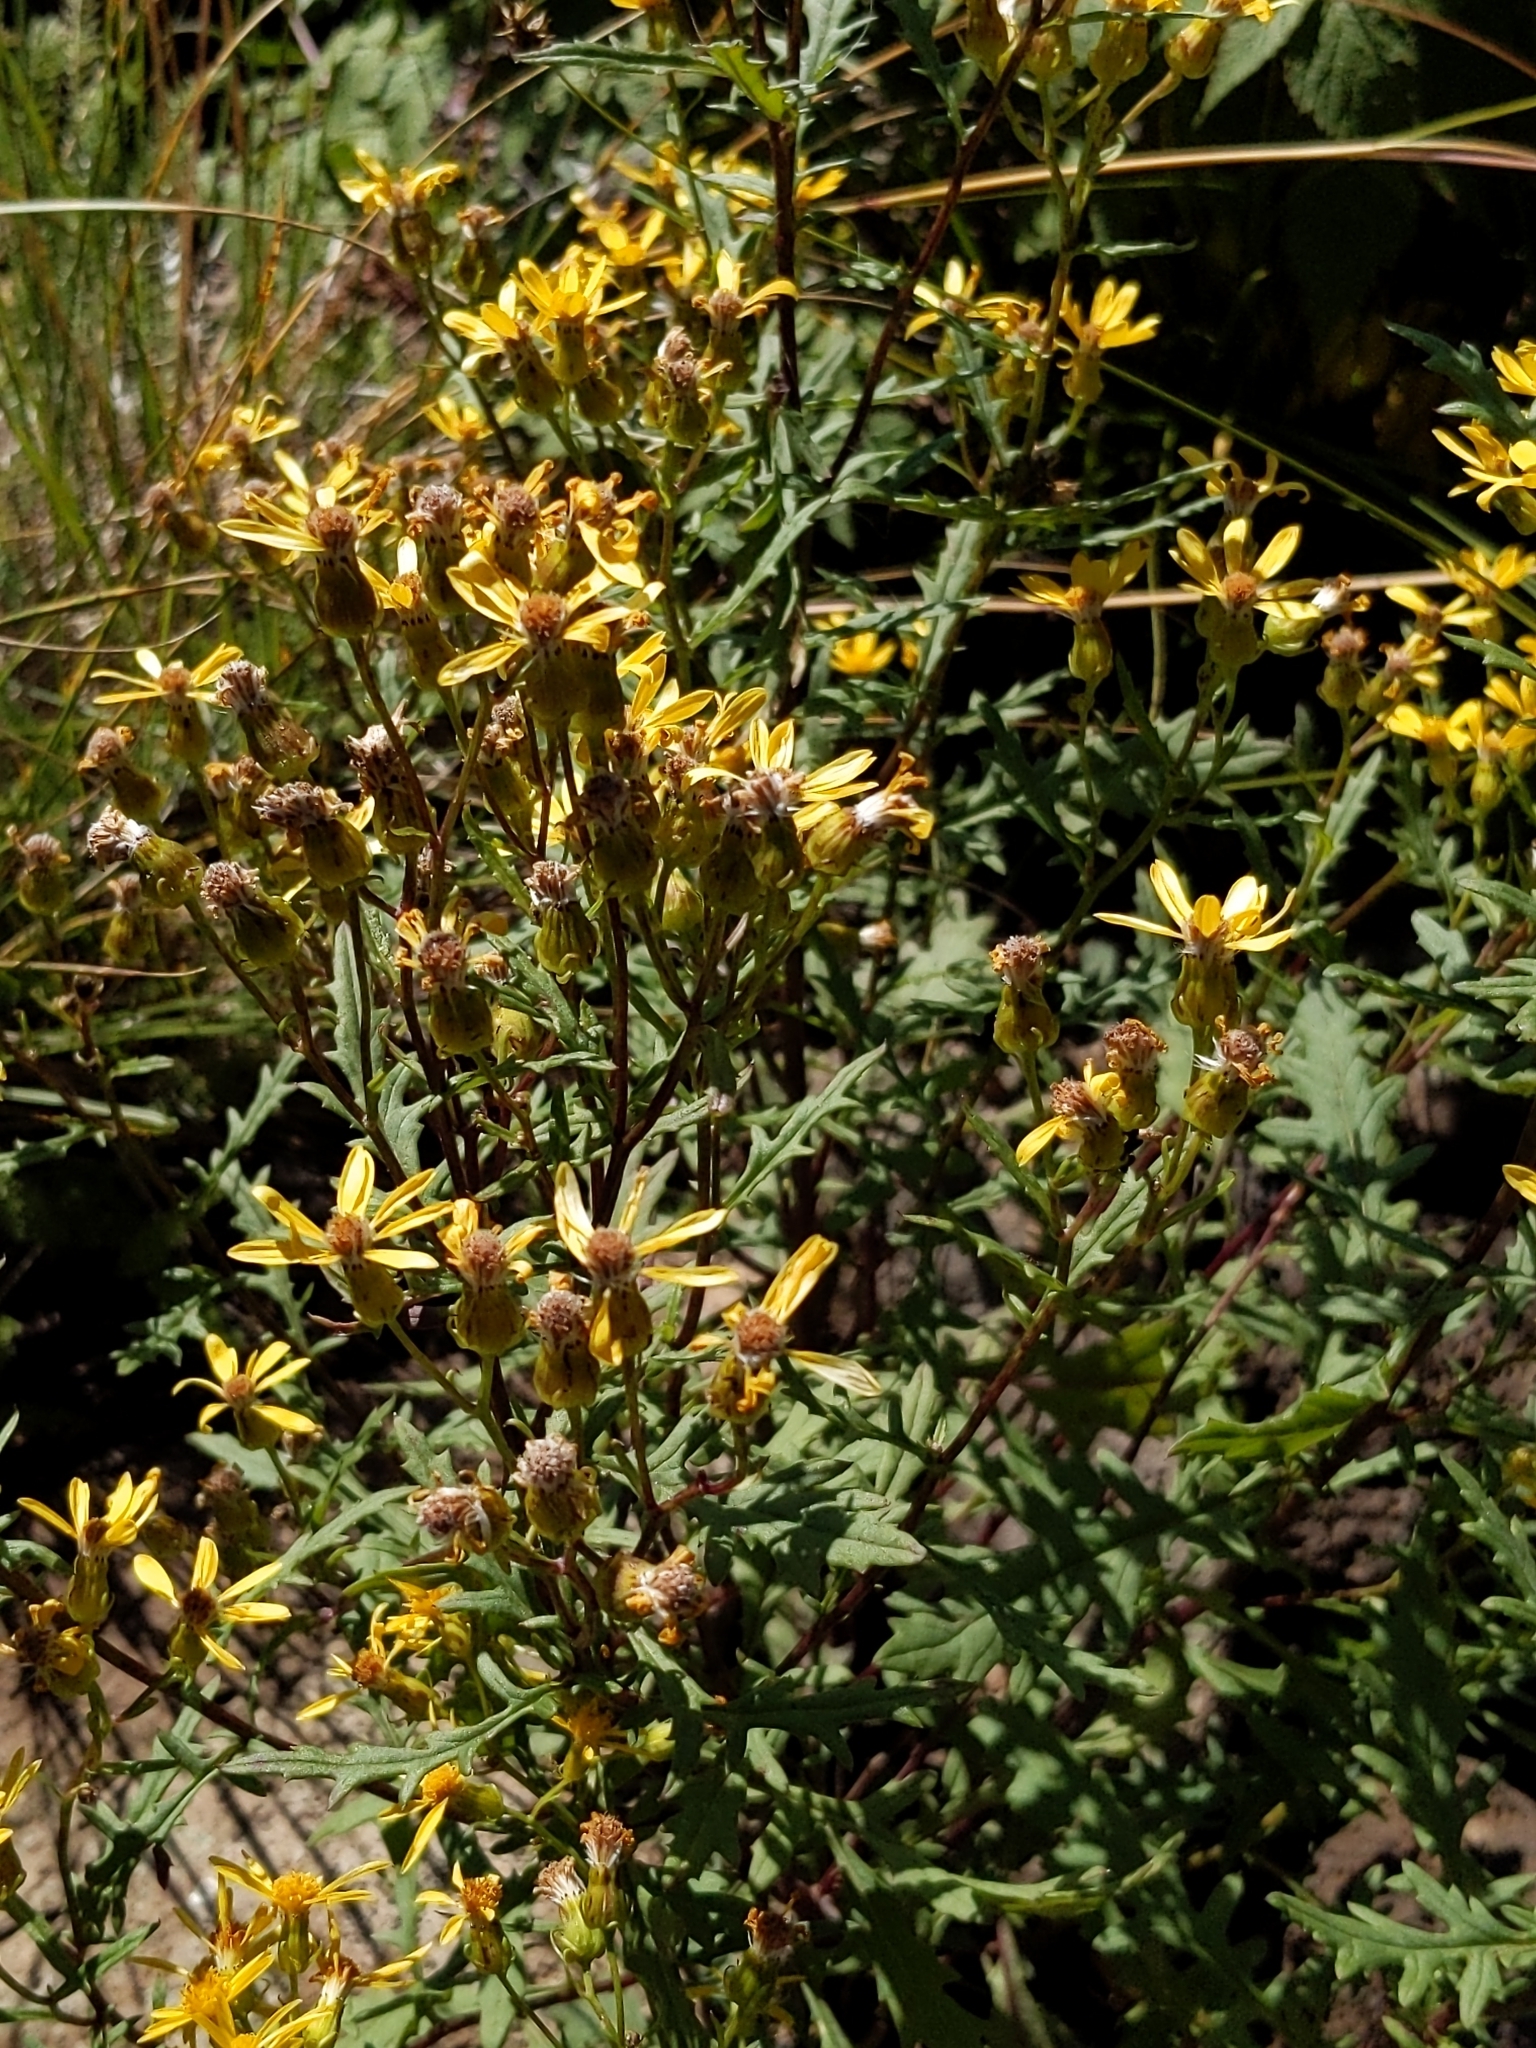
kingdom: Plantae
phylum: Tracheophyta
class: Magnoliopsida
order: Asterales
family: Asteraceae
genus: Senecio
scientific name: Senecio eremophilus
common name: Desert ragwort
